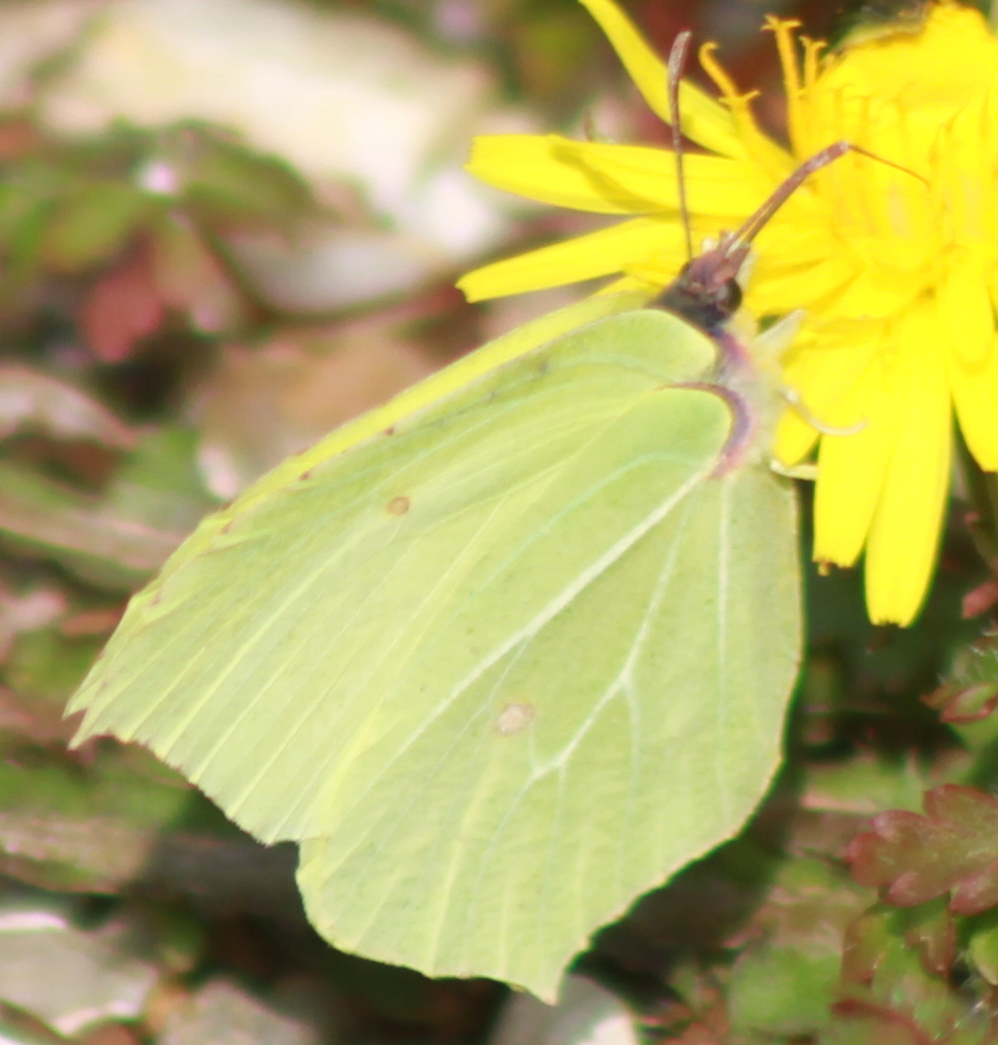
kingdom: Animalia
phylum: Arthropoda
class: Insecta
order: Lepidoptera
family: Pieridae
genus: Gonepteryx
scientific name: Gonepteryx rhamni
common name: Brimstone
